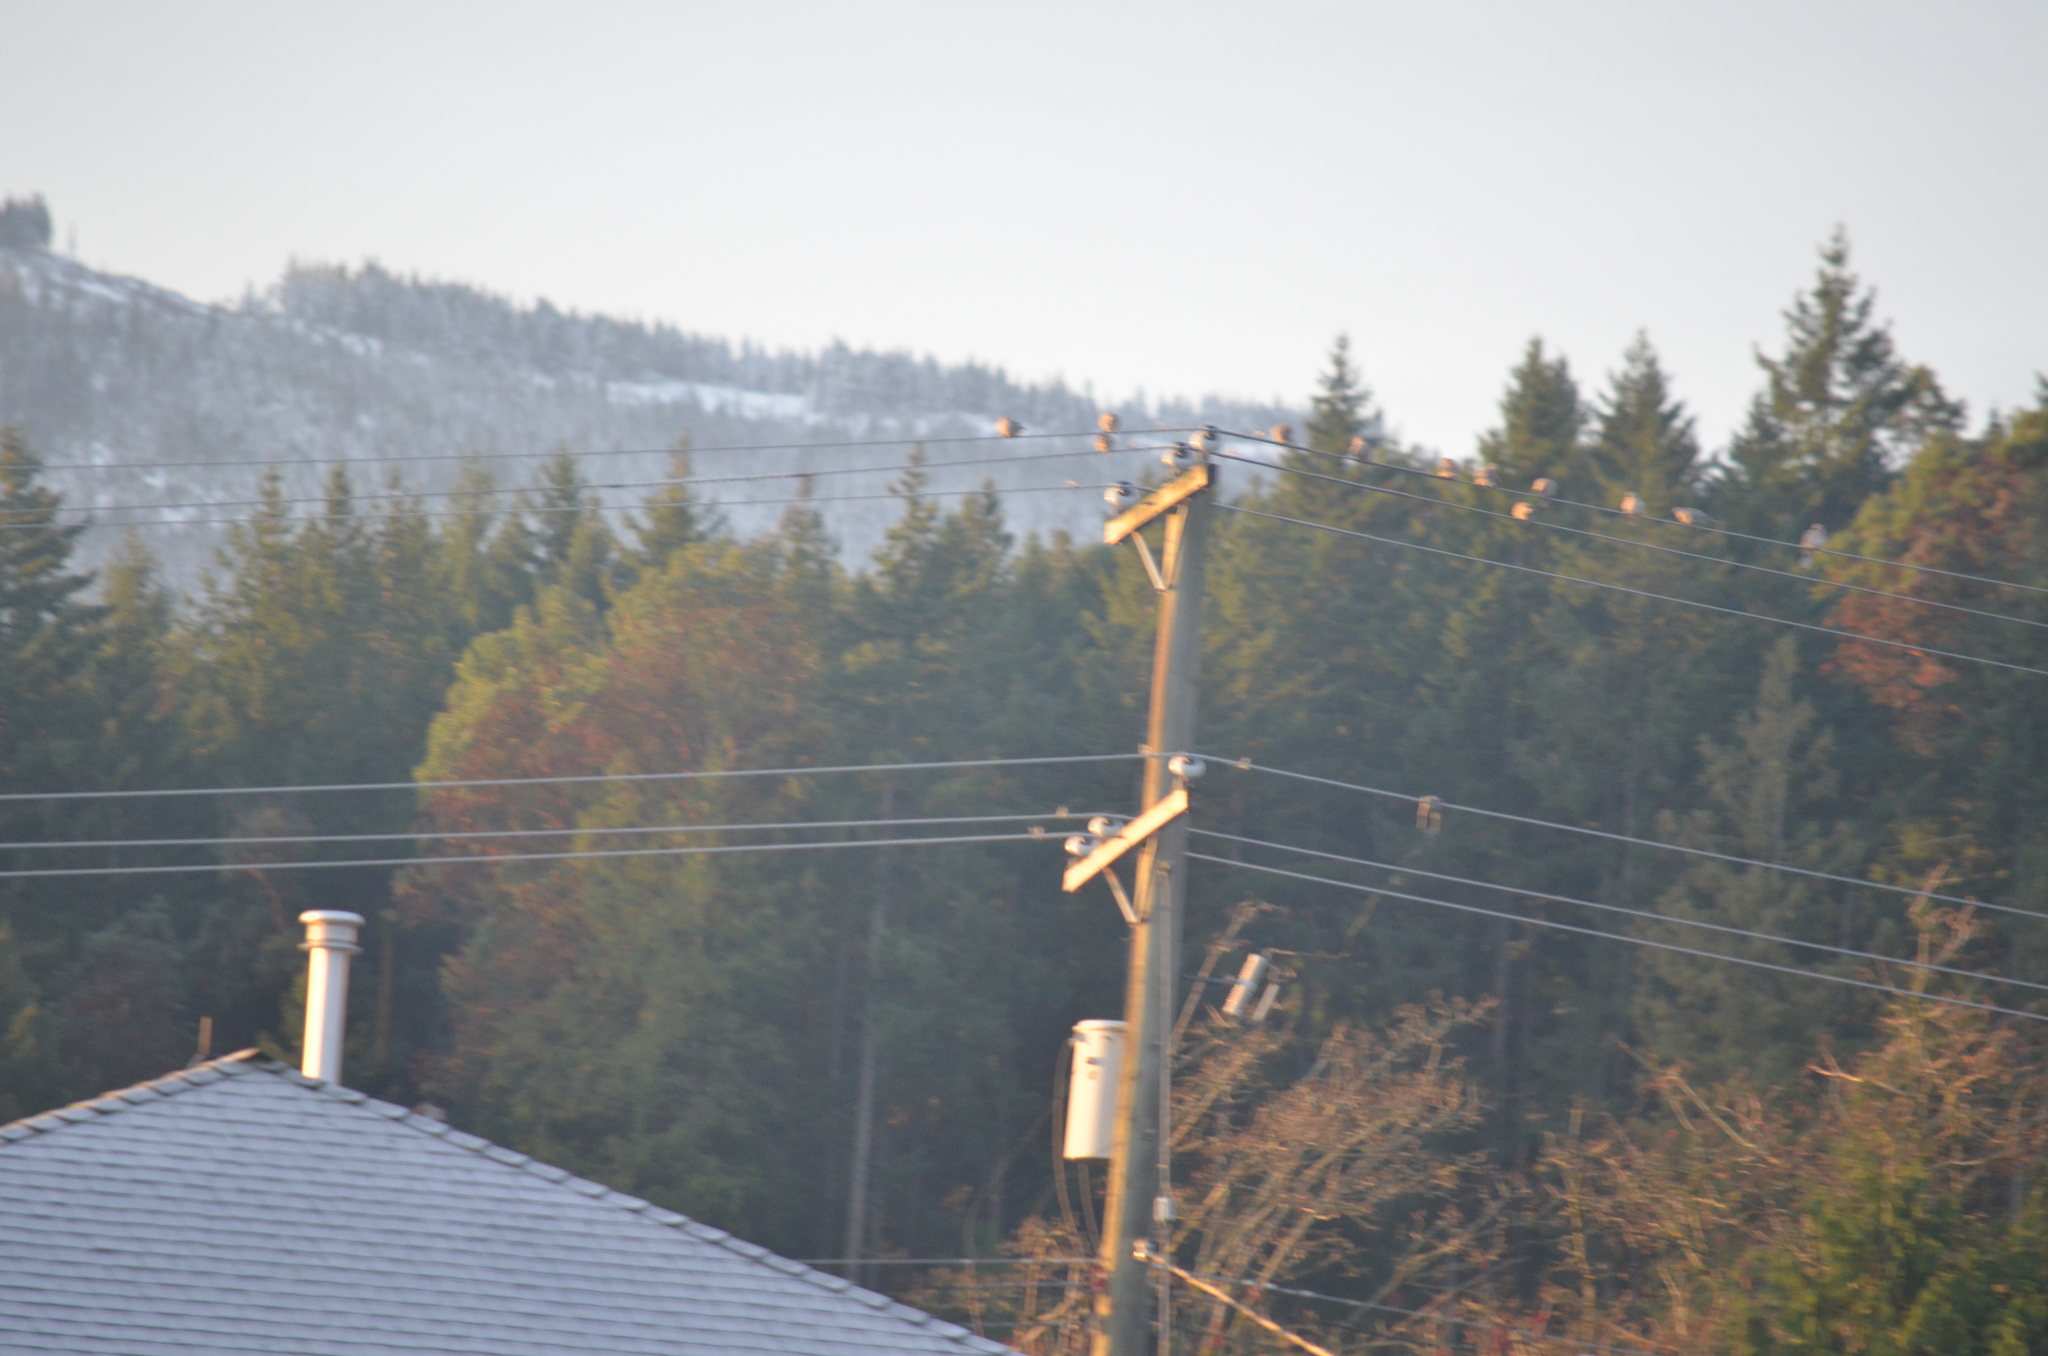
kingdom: Animalia
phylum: Chordata
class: Aves
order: Columbiformes
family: Columbidae
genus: Streptopelia
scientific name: Streptopelia decaocto
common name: Eurasian collared dove
